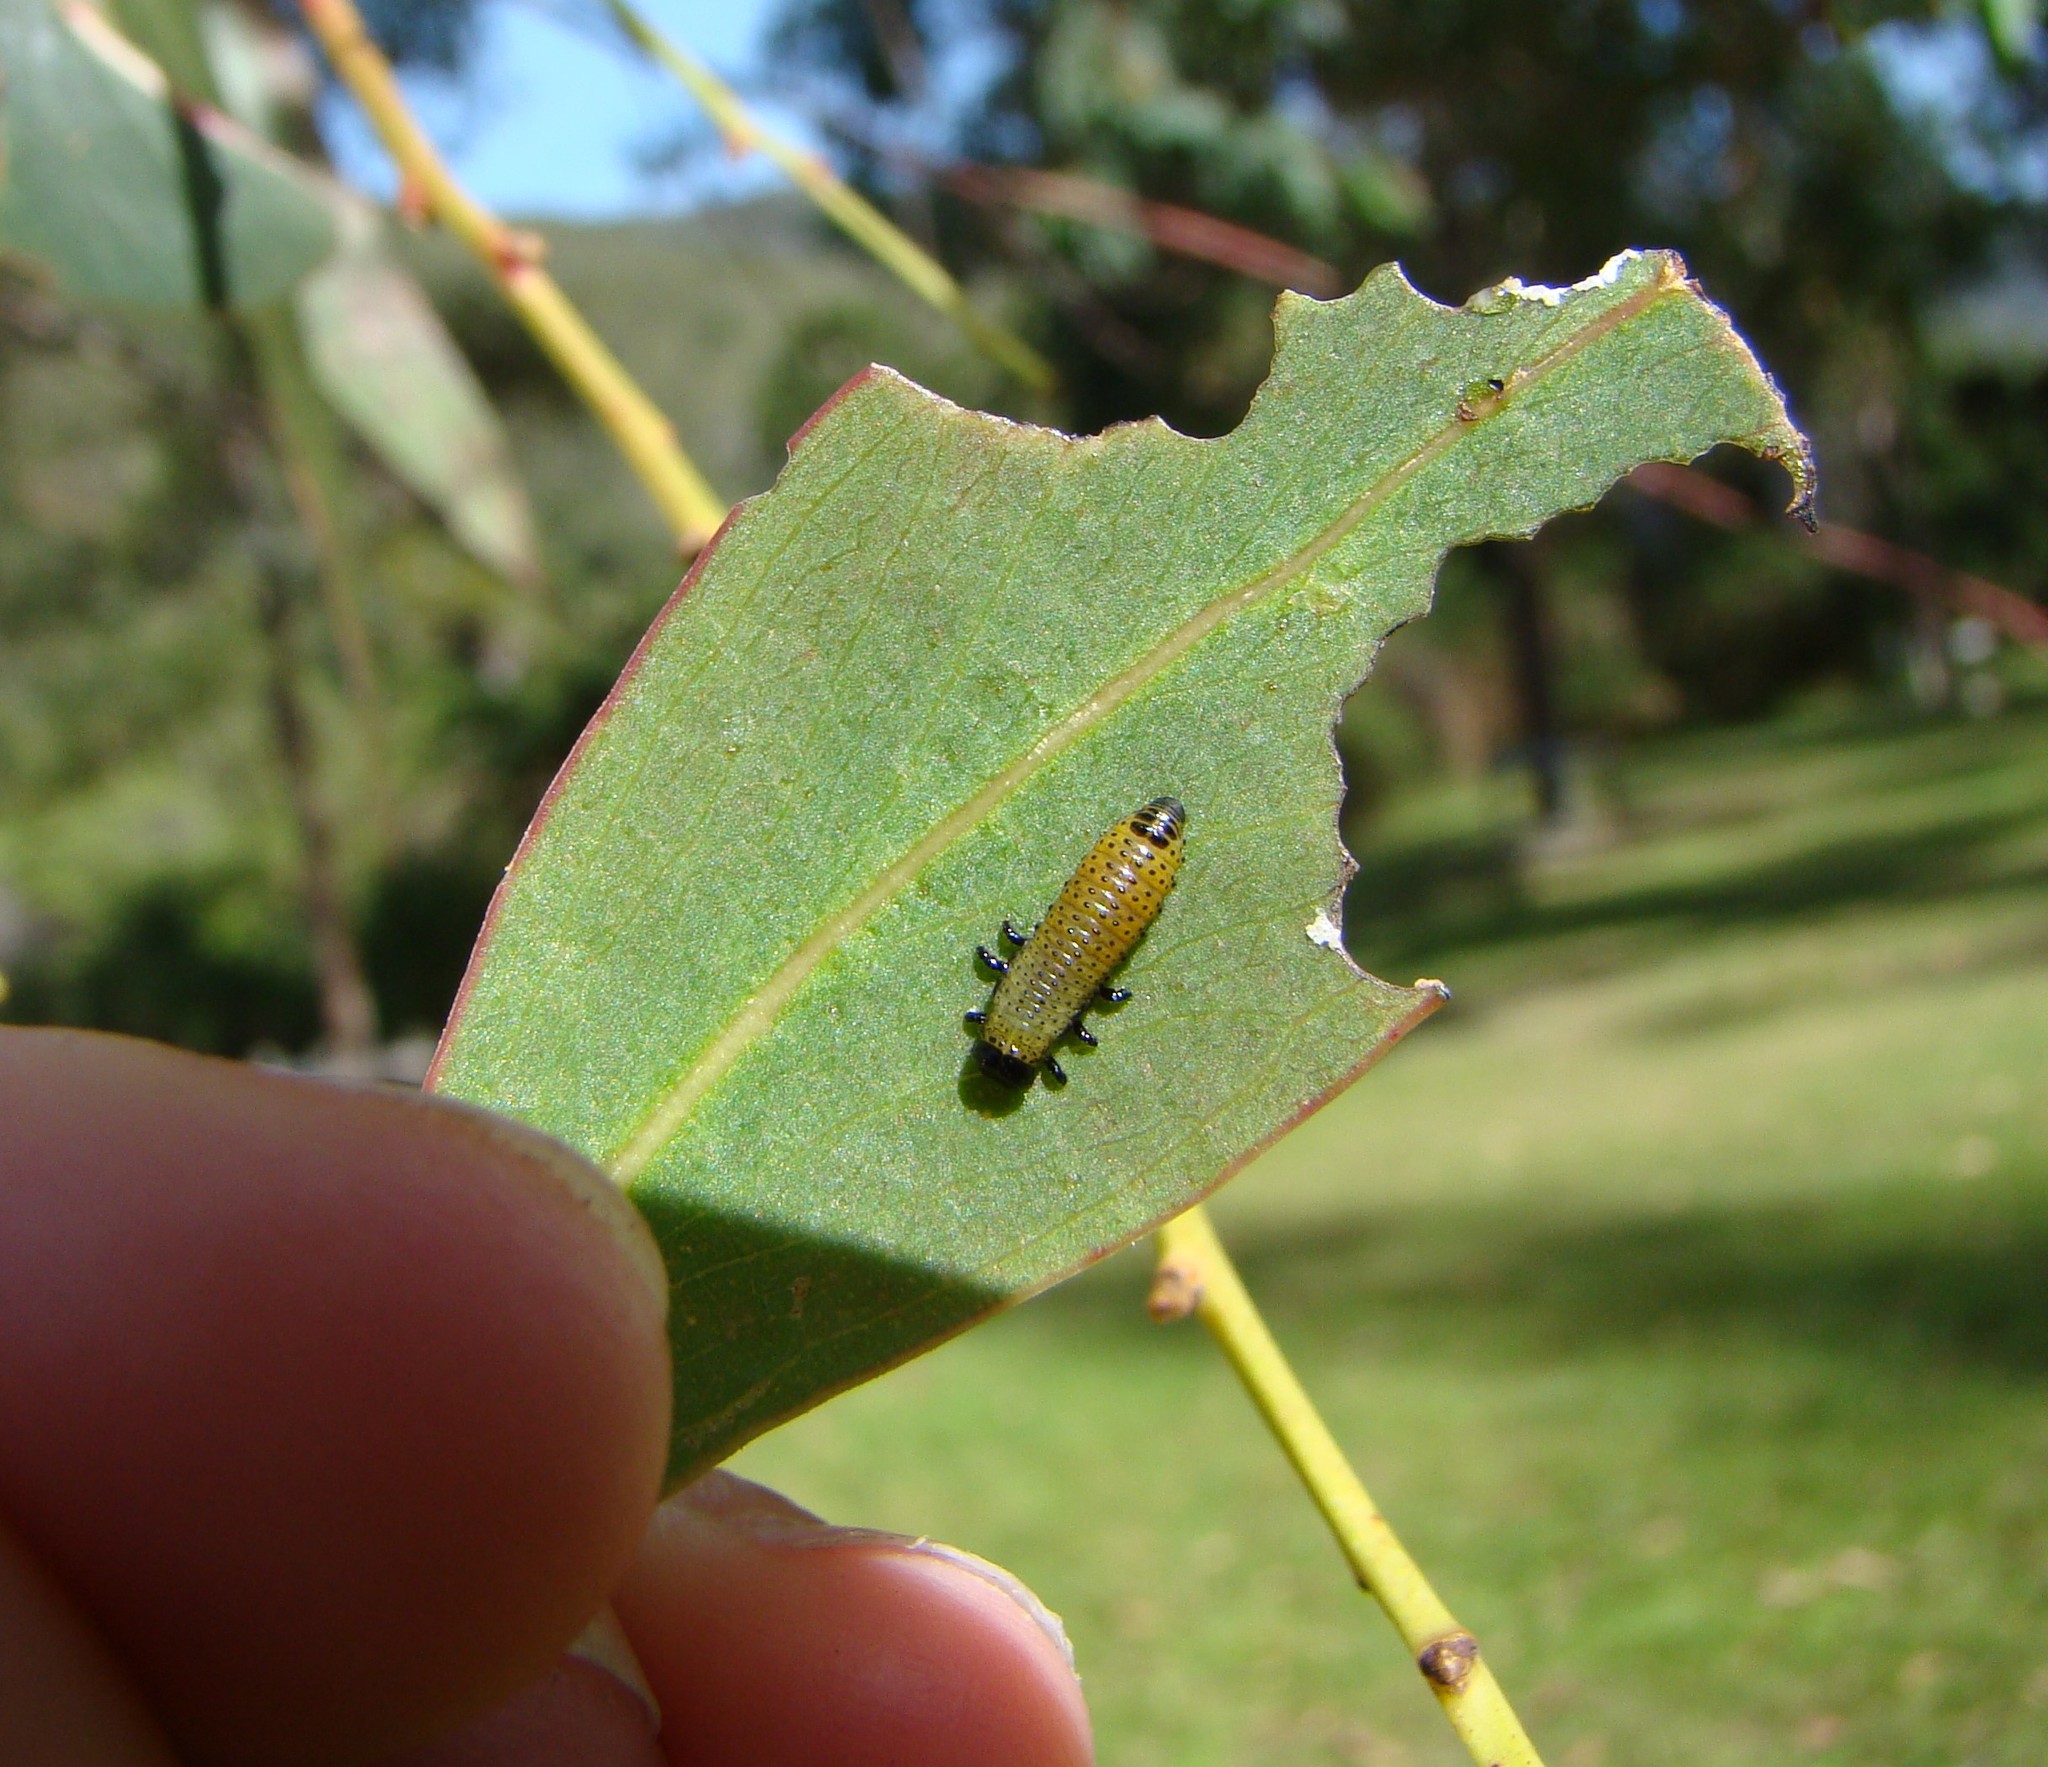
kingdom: Animalia
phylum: Arthropoda
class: Insecta
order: Coleoptera
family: Chrysomelidae
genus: Paropsis
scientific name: Paropsis charybdis
